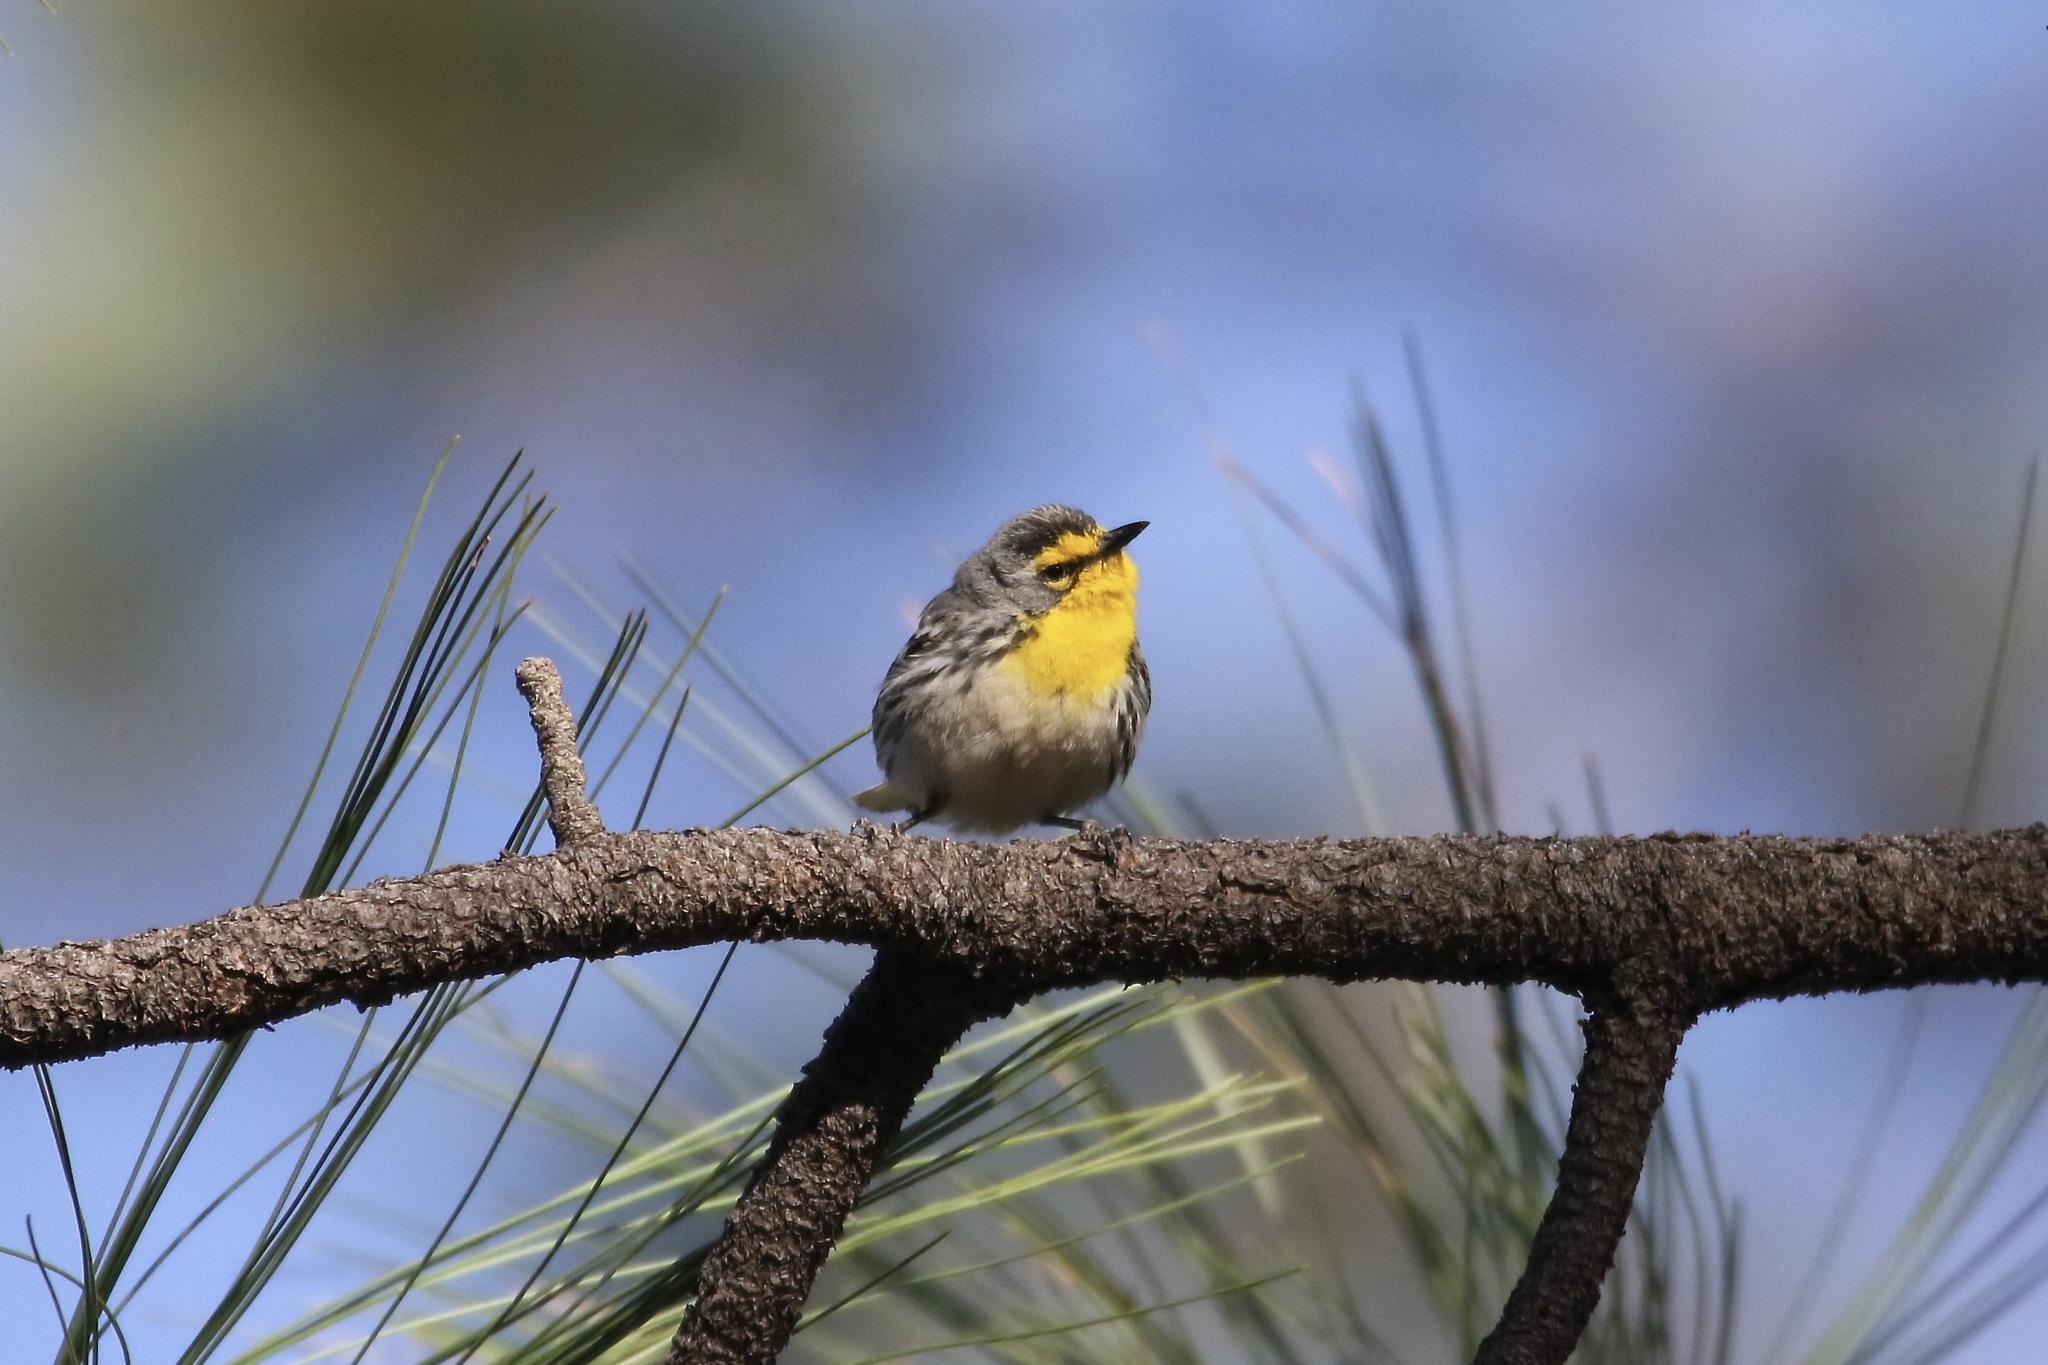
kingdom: Animalia
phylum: Chordata
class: Aves
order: Passeriformes
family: Parulidae
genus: Setophaga
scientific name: Setophaga graciae
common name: Grace's warbler
